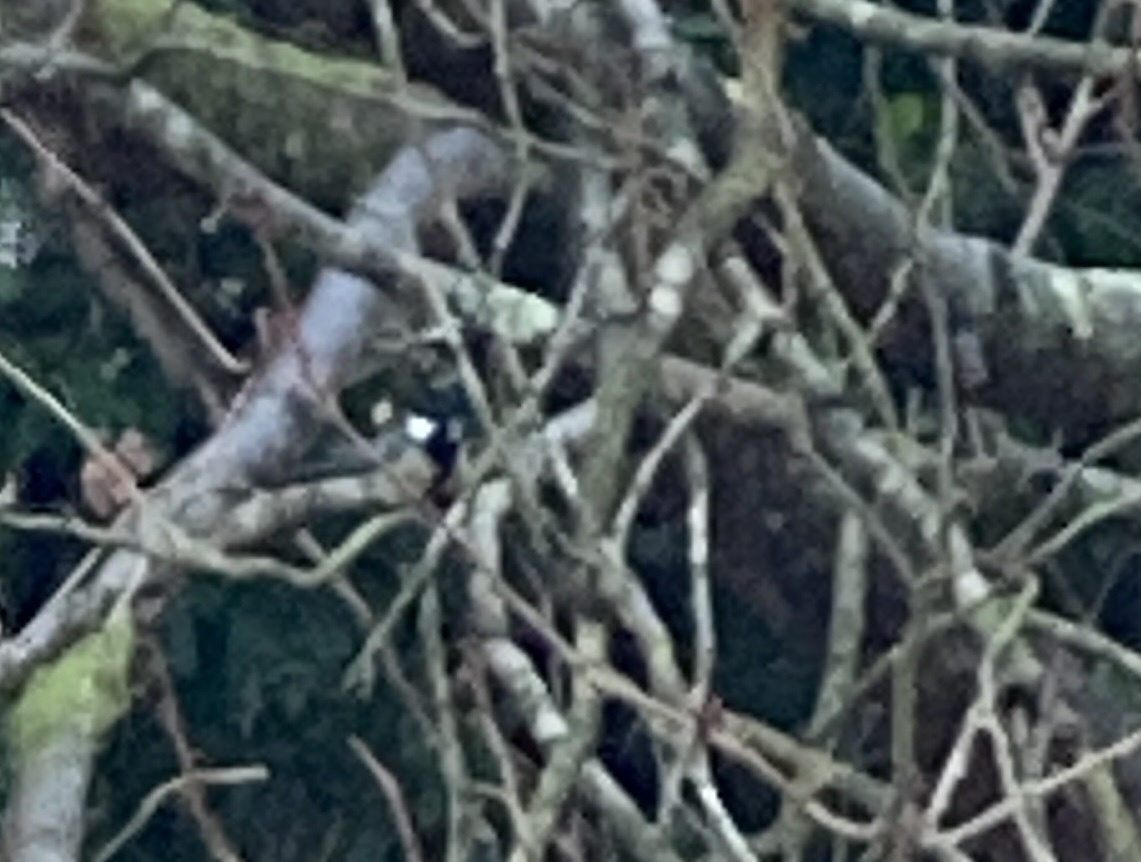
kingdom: Animalia
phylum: Chordata
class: Aves
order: Passeriformes
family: Paridae
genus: Parus
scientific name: Parus major
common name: Great tit
